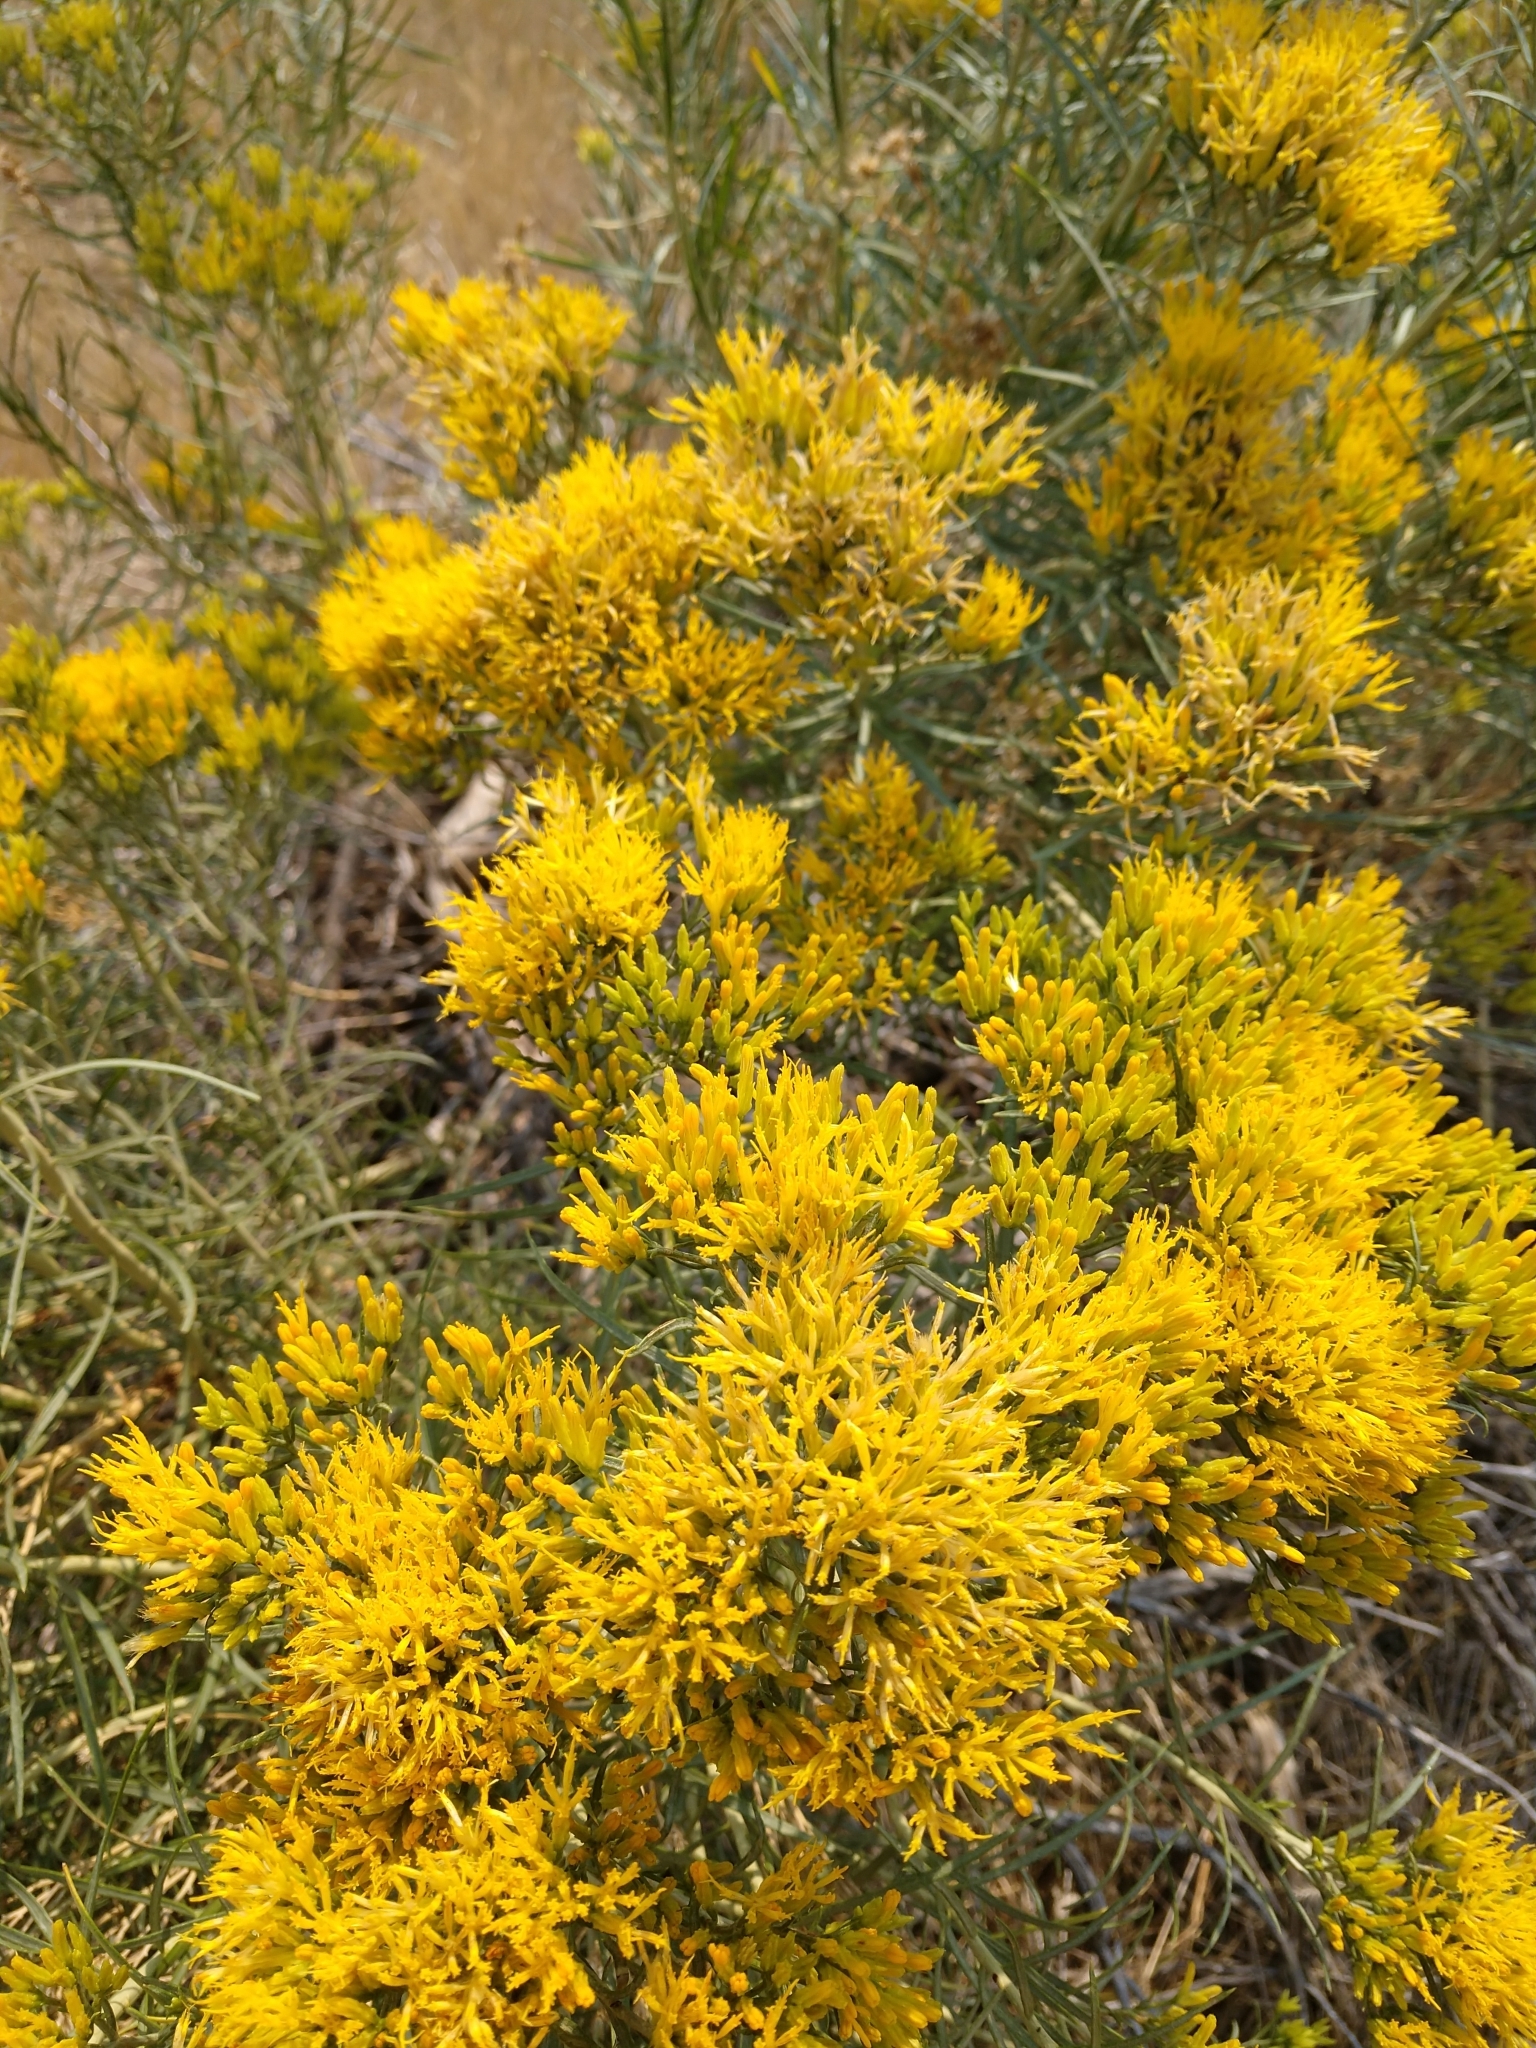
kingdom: Plantae
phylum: Tracheophyta
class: Magnoliopsida
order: Asterales
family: Asteraceae
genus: Ericameria
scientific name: Ericameria nauseosa
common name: Rubber rabbitbrush
